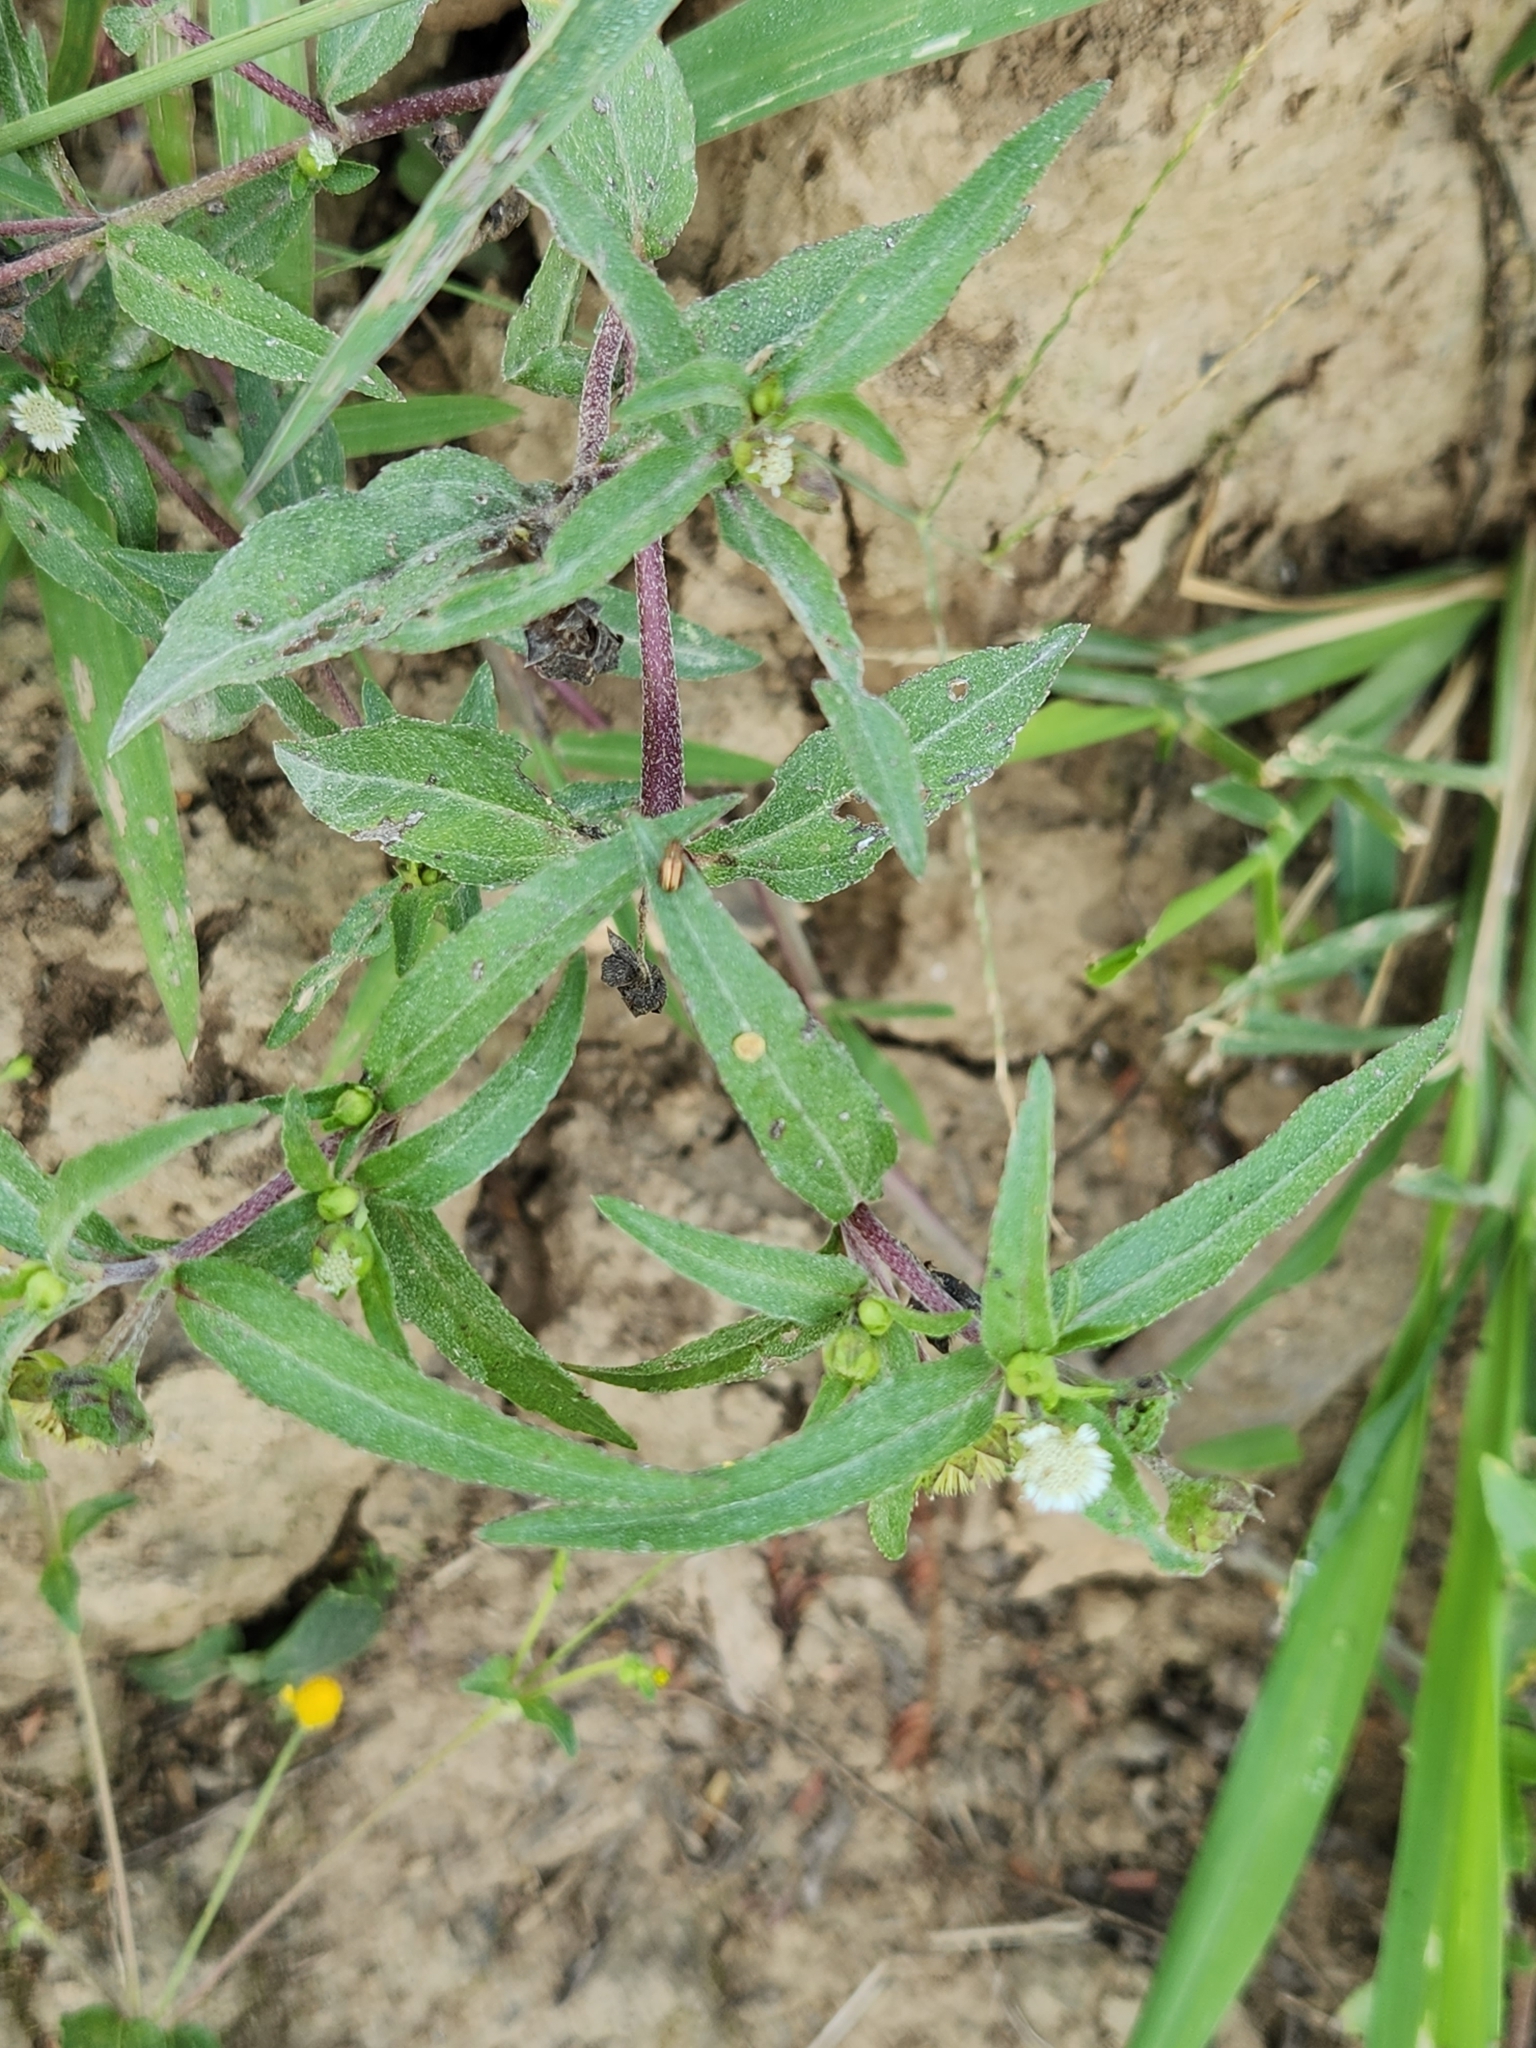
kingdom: Plantae
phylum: Tracheophyta
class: Magnoliopsida
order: Asterales
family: Asteraceae
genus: Eclipta
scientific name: Eclipta prostrata
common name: False daisy
